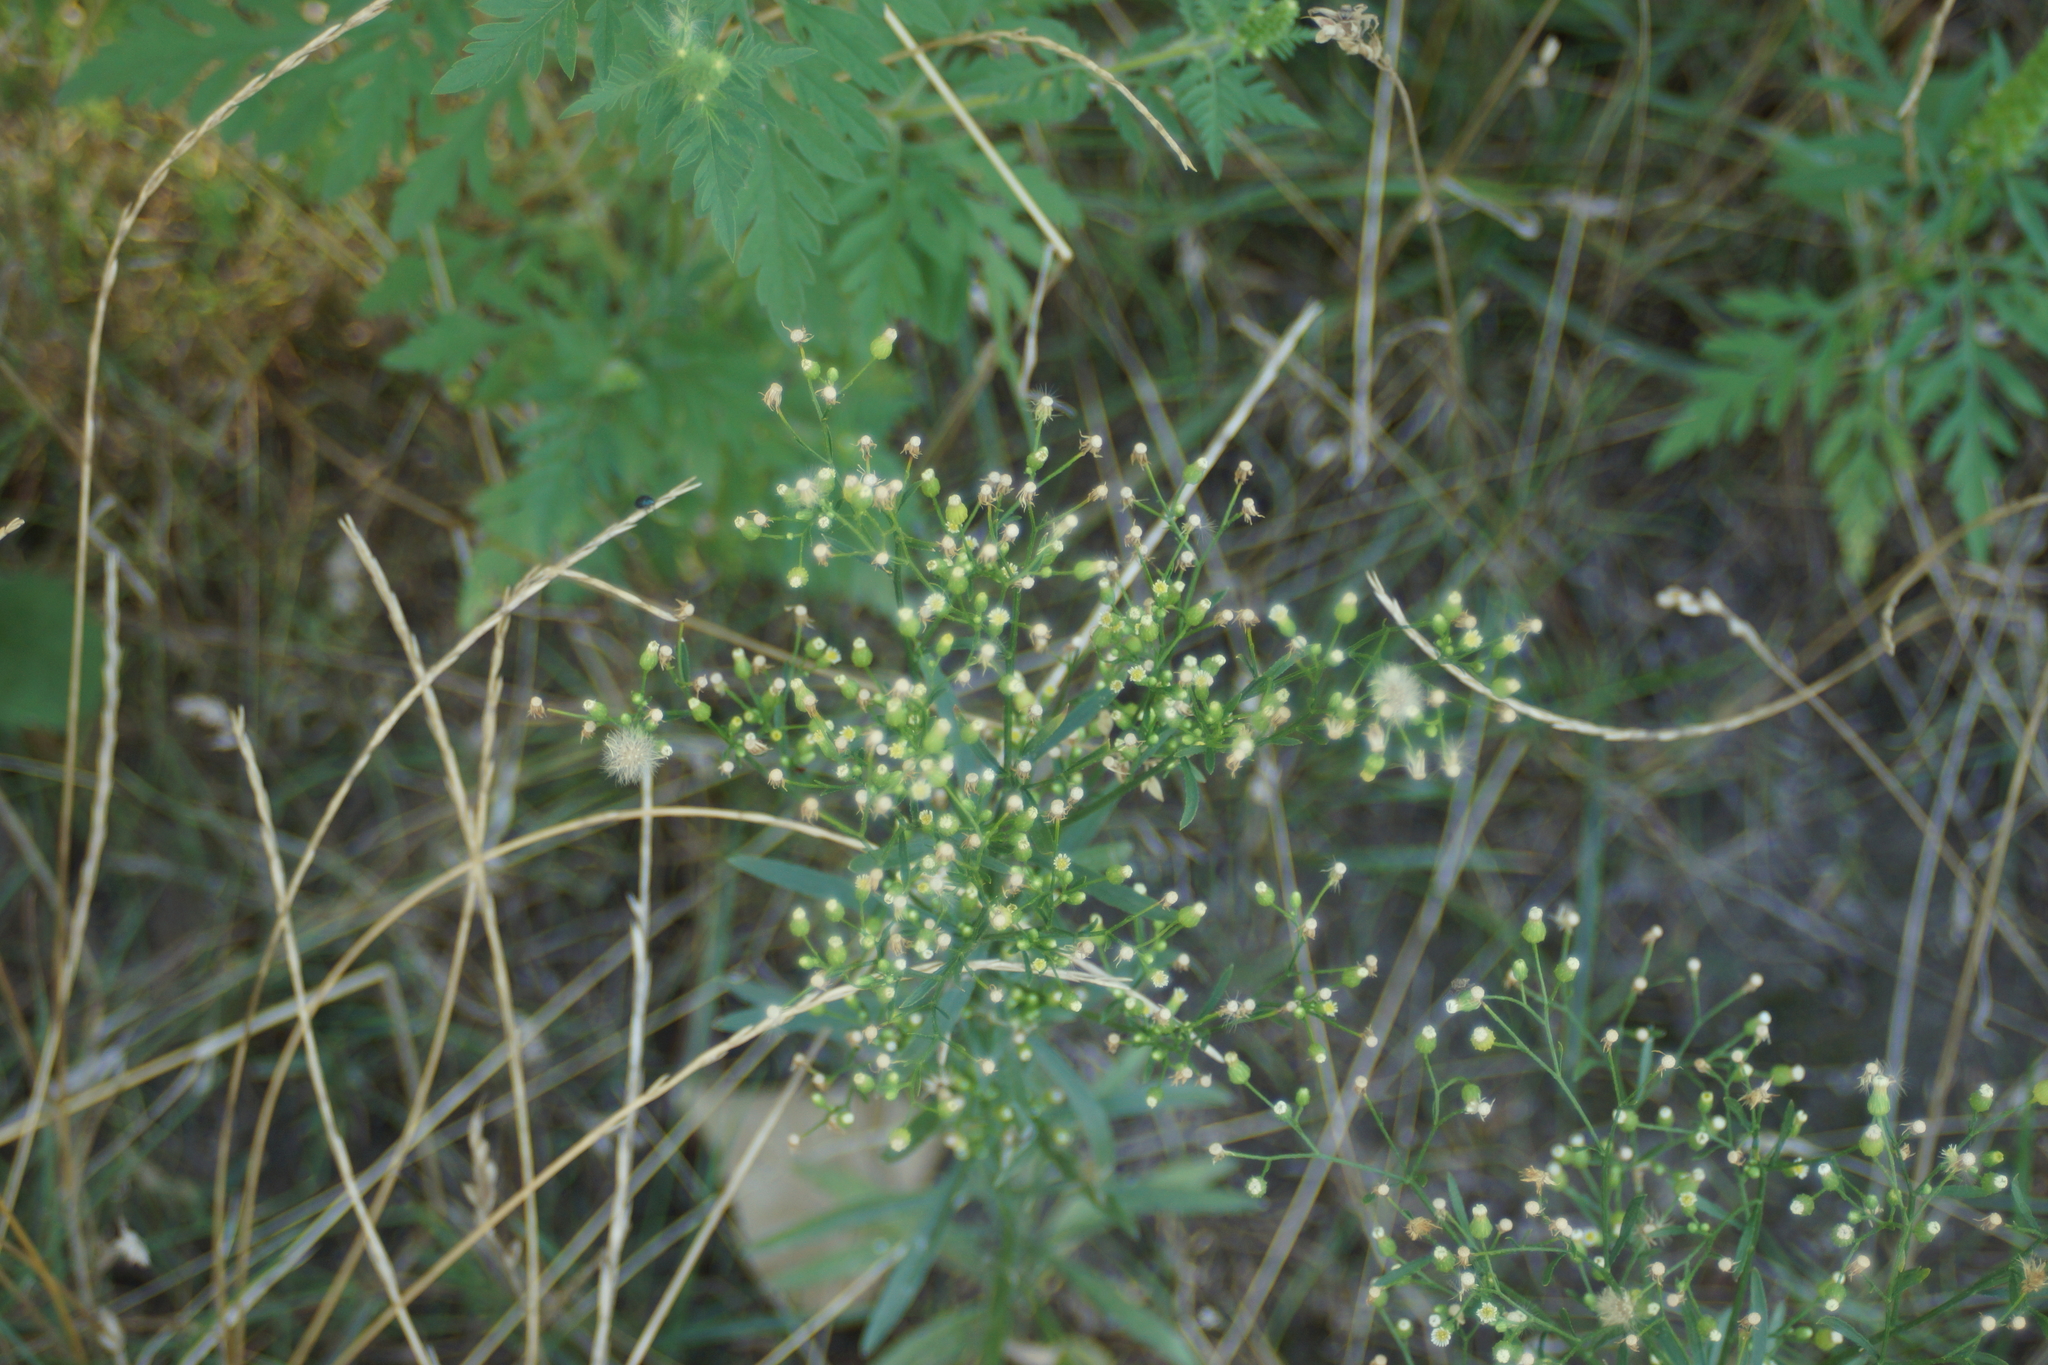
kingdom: Plantae
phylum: Tracheophyta
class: Magnoliopsida
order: Asterales
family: Asteraceae
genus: Erigeron
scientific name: Erigeron canadensis
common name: Canadian fleabane
